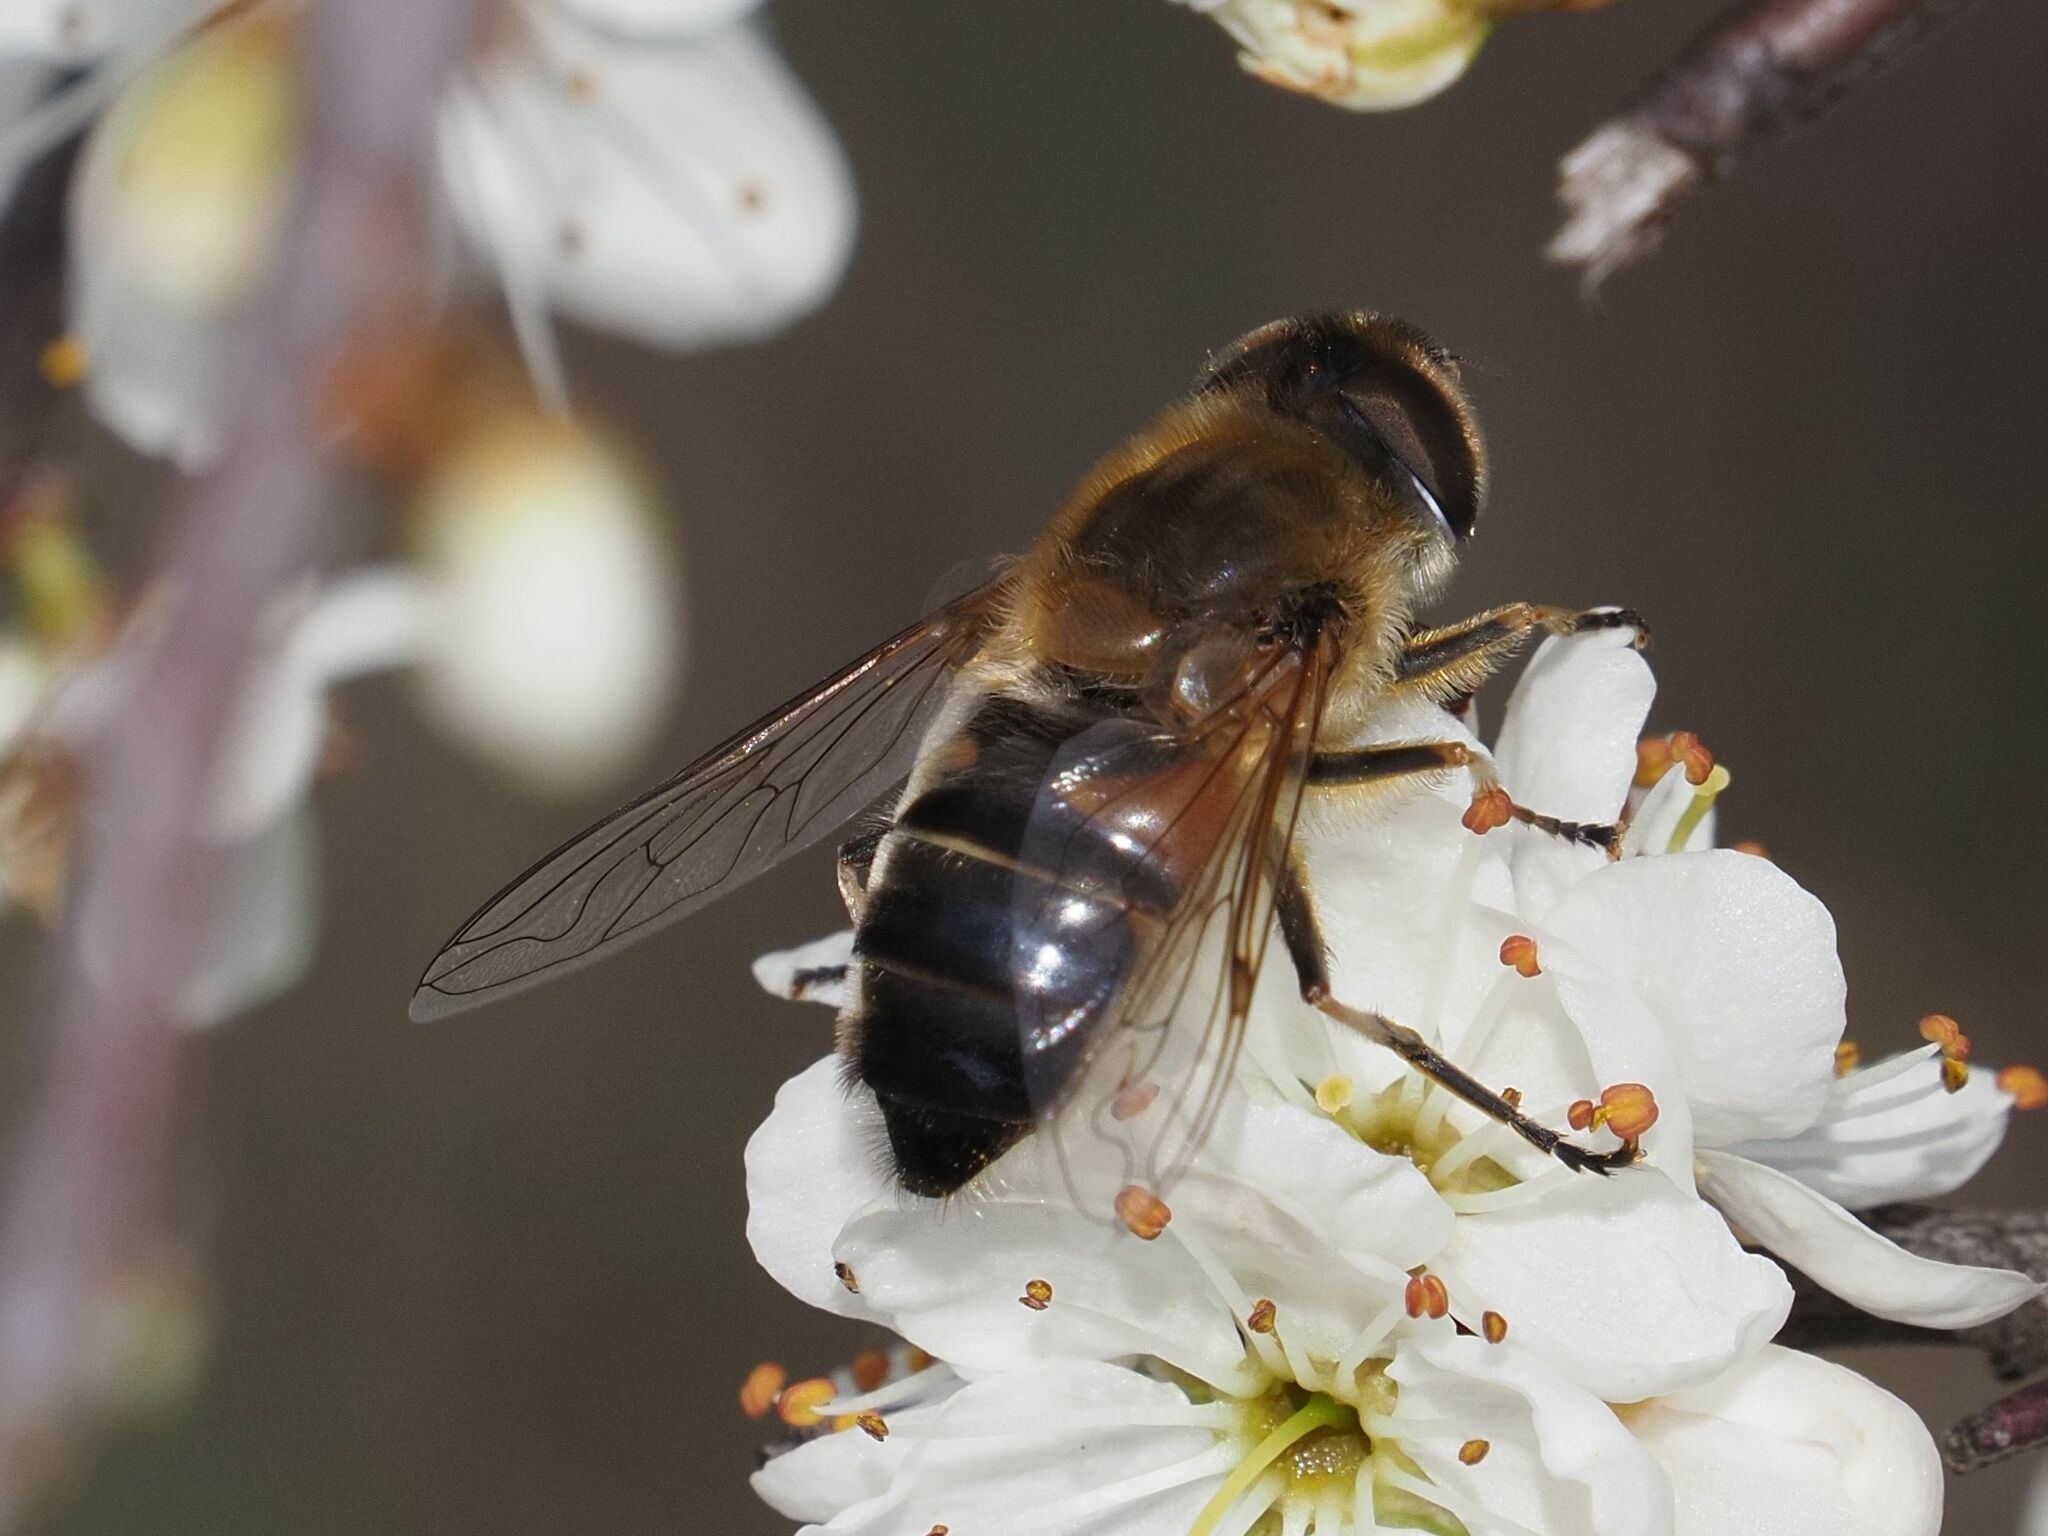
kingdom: Animalia
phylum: Arthropoda
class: Insecta
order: Diptera
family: Syrphidae
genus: Eristalis
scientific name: Eristalis pertinax
